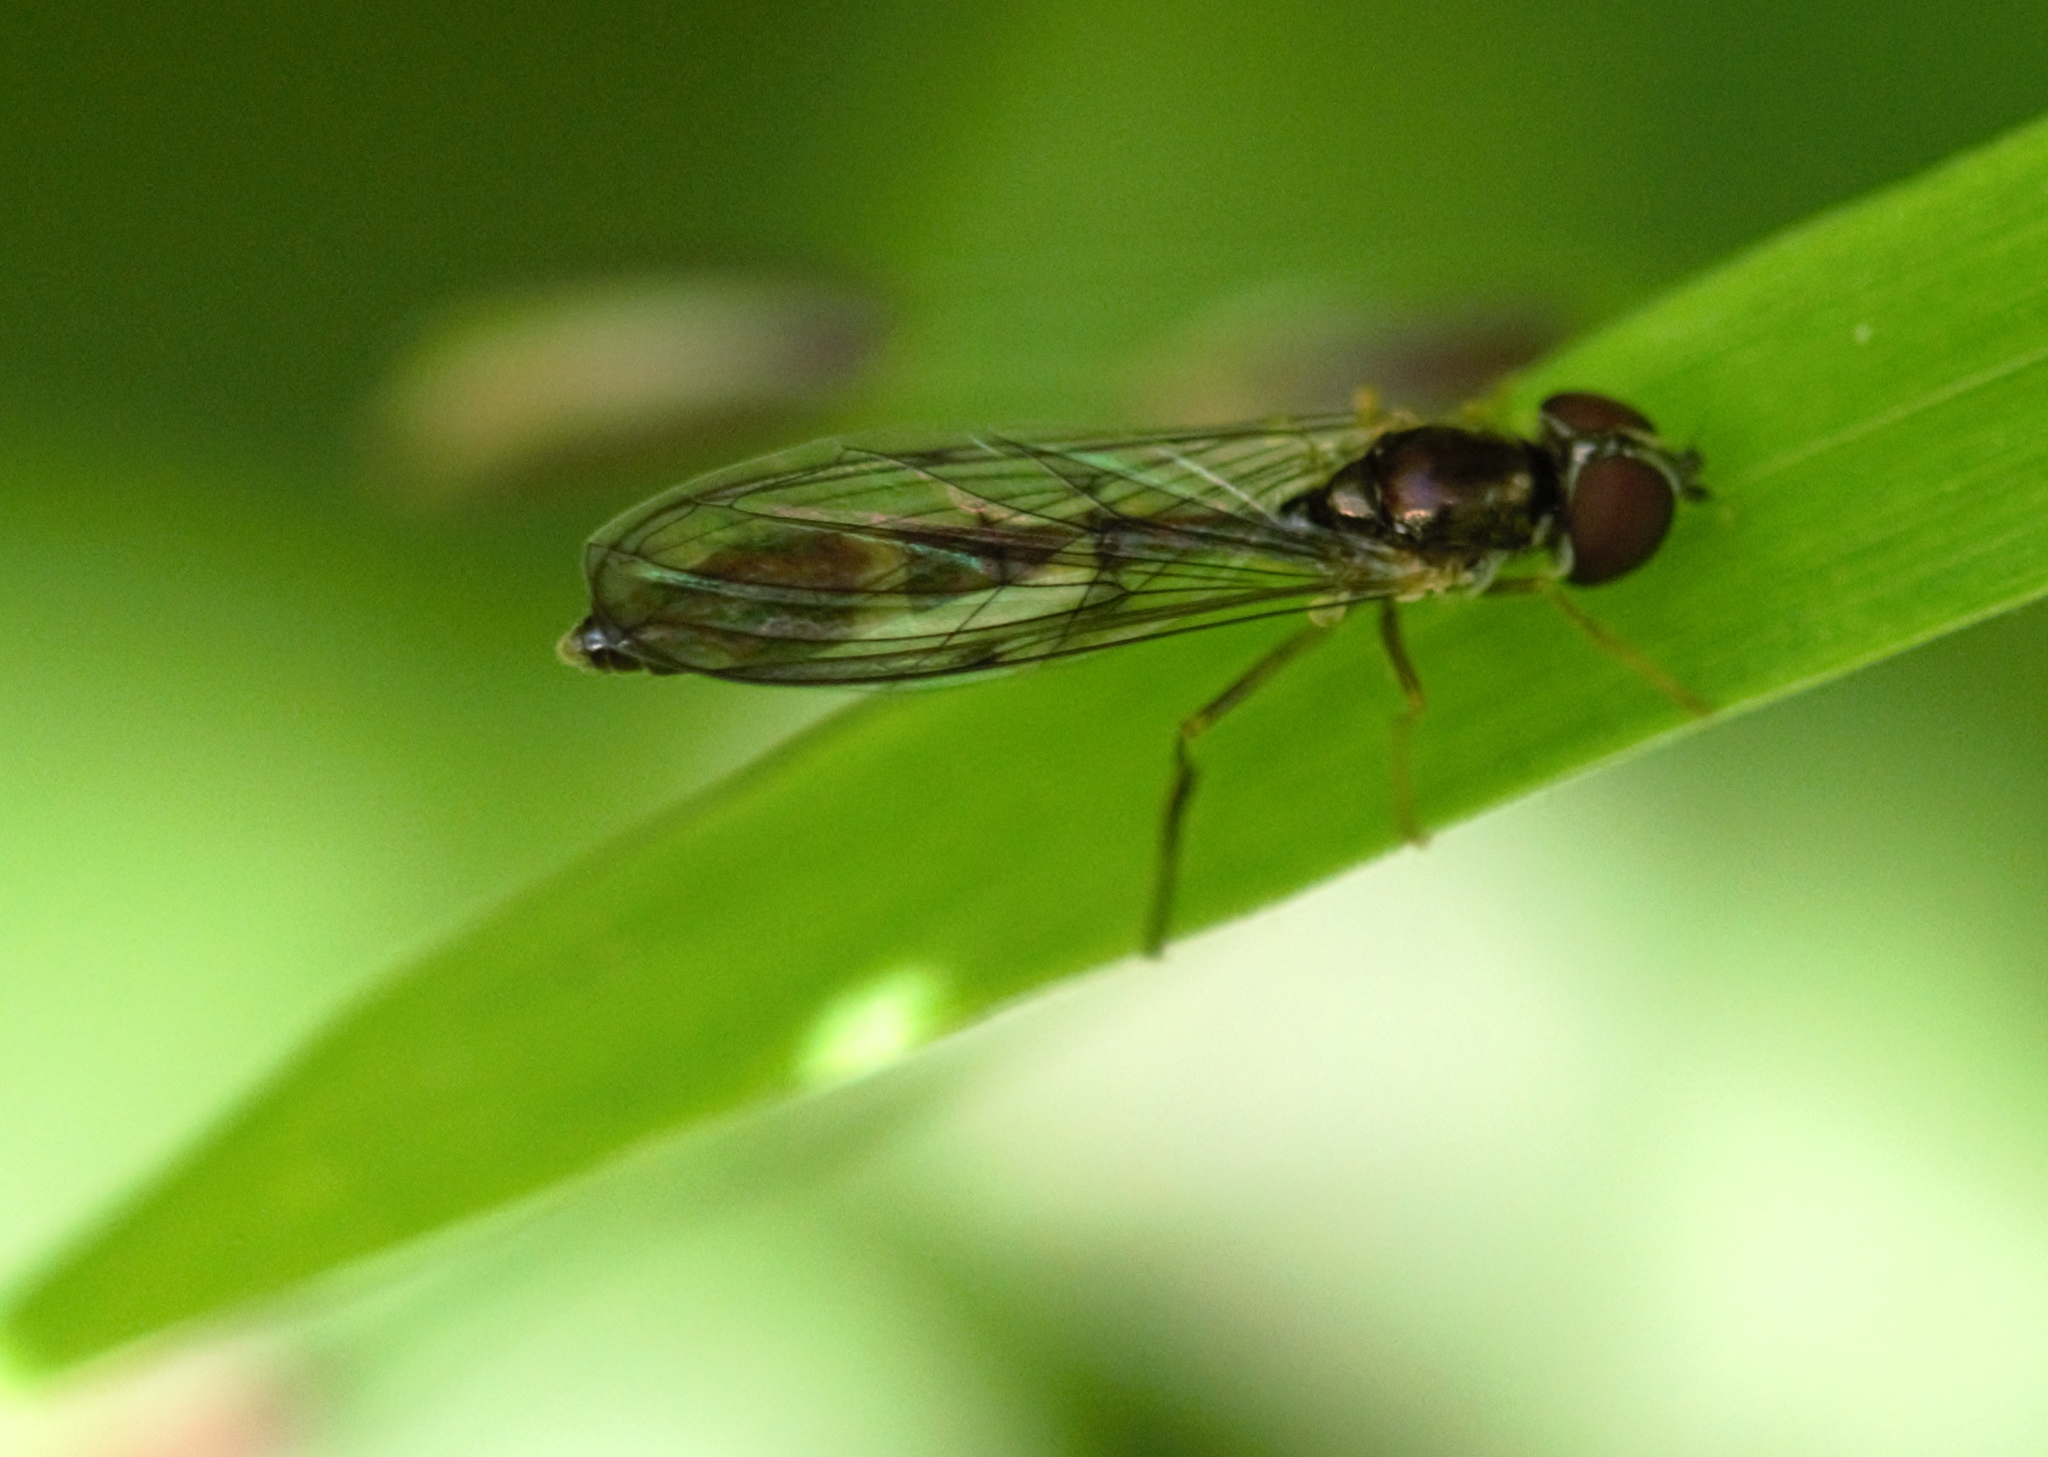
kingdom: Animalia
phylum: Arthropoda
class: Insecta
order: Diptera
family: Syrphidae
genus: Baccha
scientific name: Baccha elongata
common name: Common dainty
